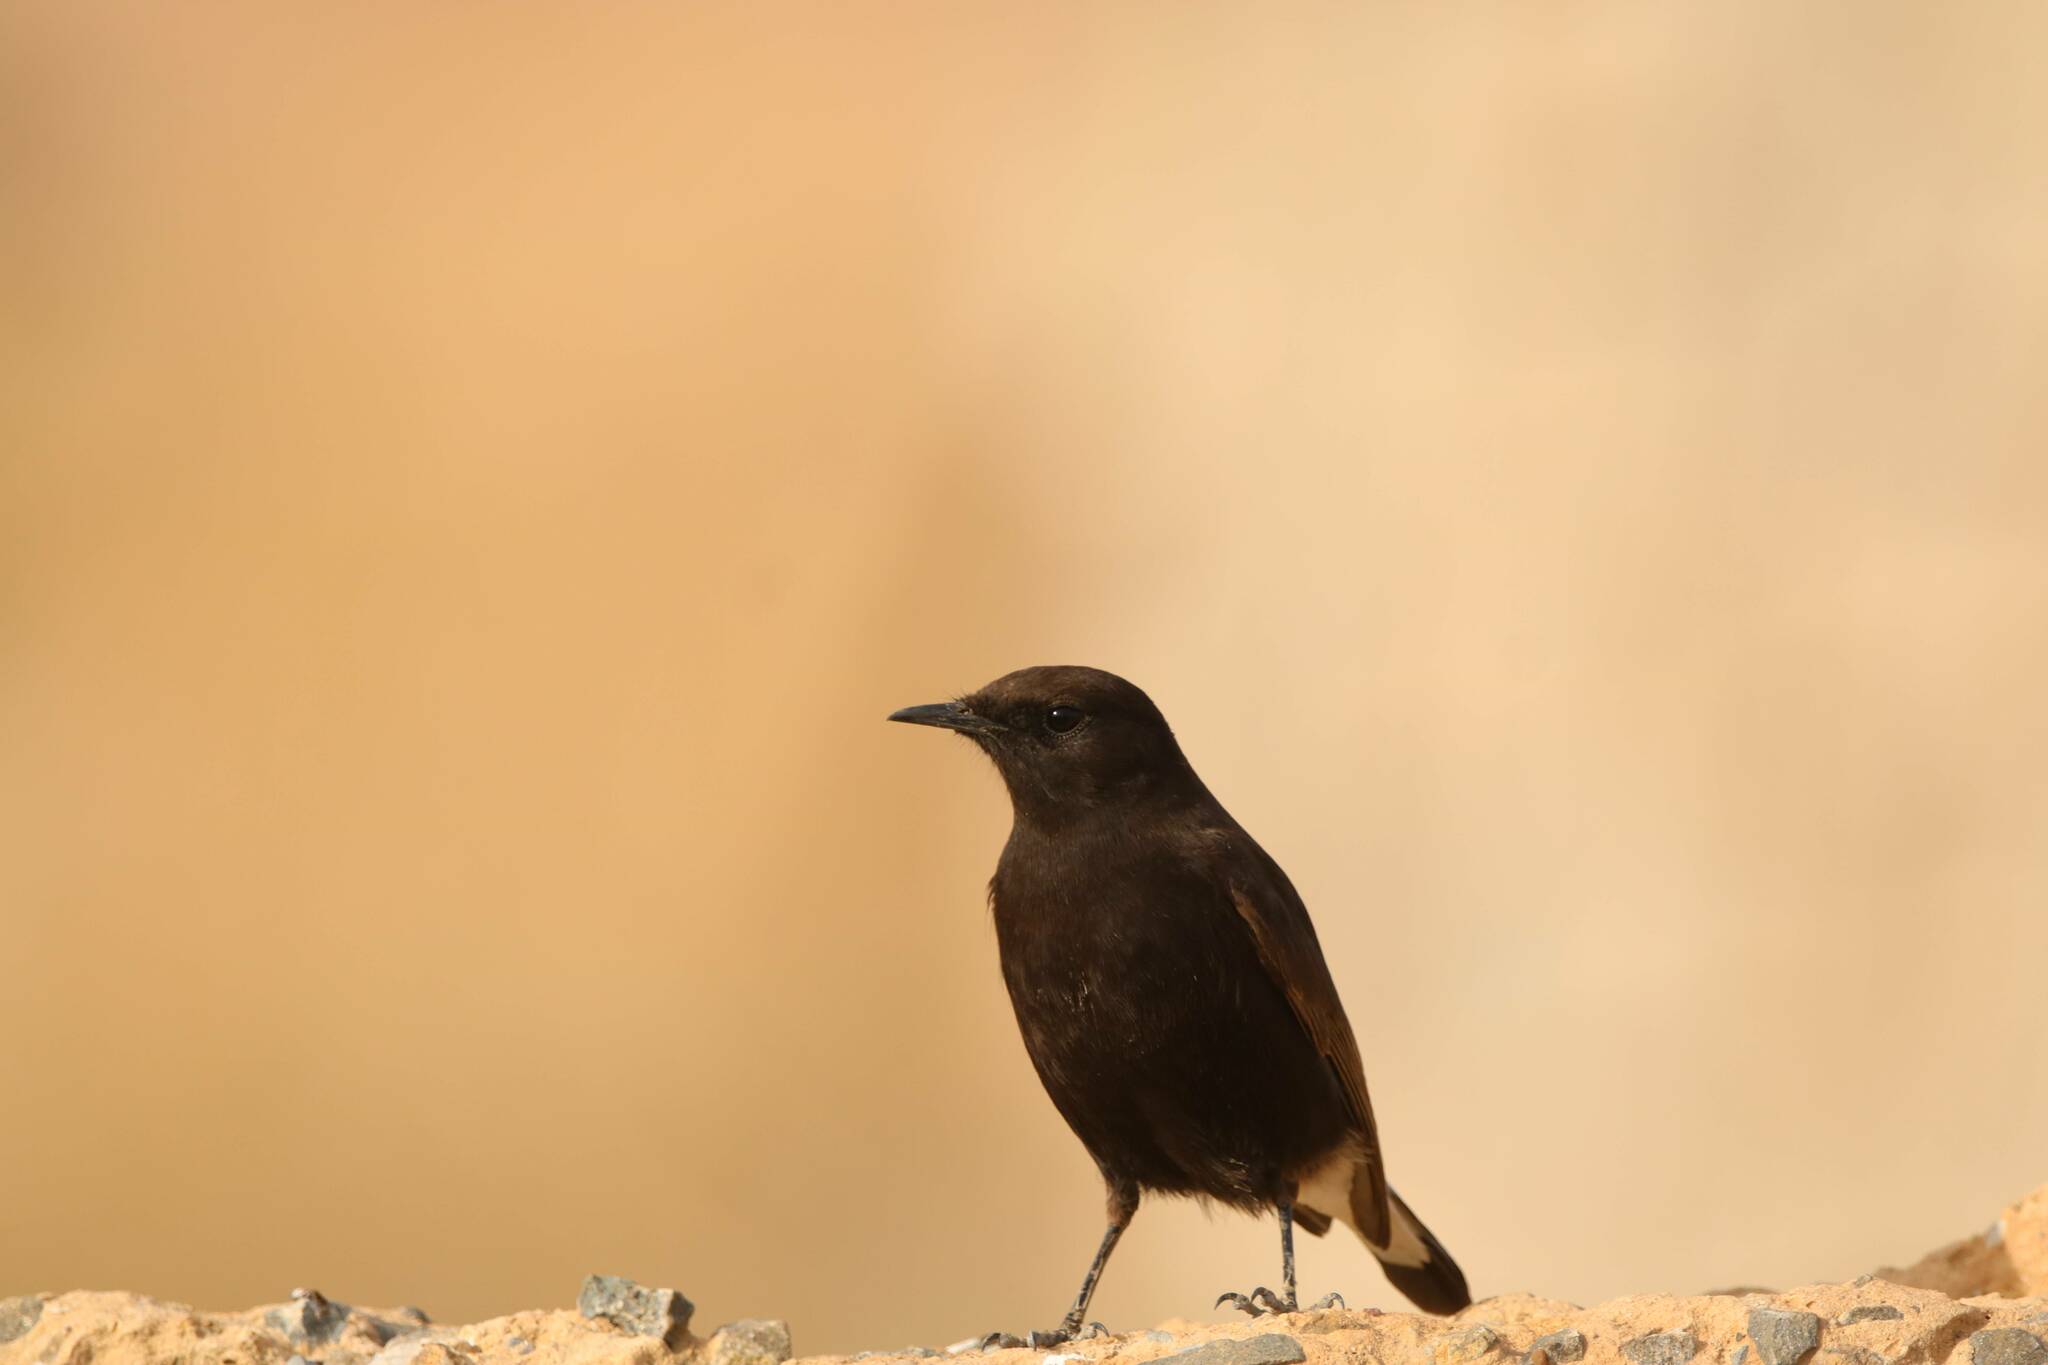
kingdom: Animalia
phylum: Chordata
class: Aves
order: Passeriformes
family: Muscicapidae
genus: Oenanthe
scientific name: Oenanthe leucura
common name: Black wheatear
